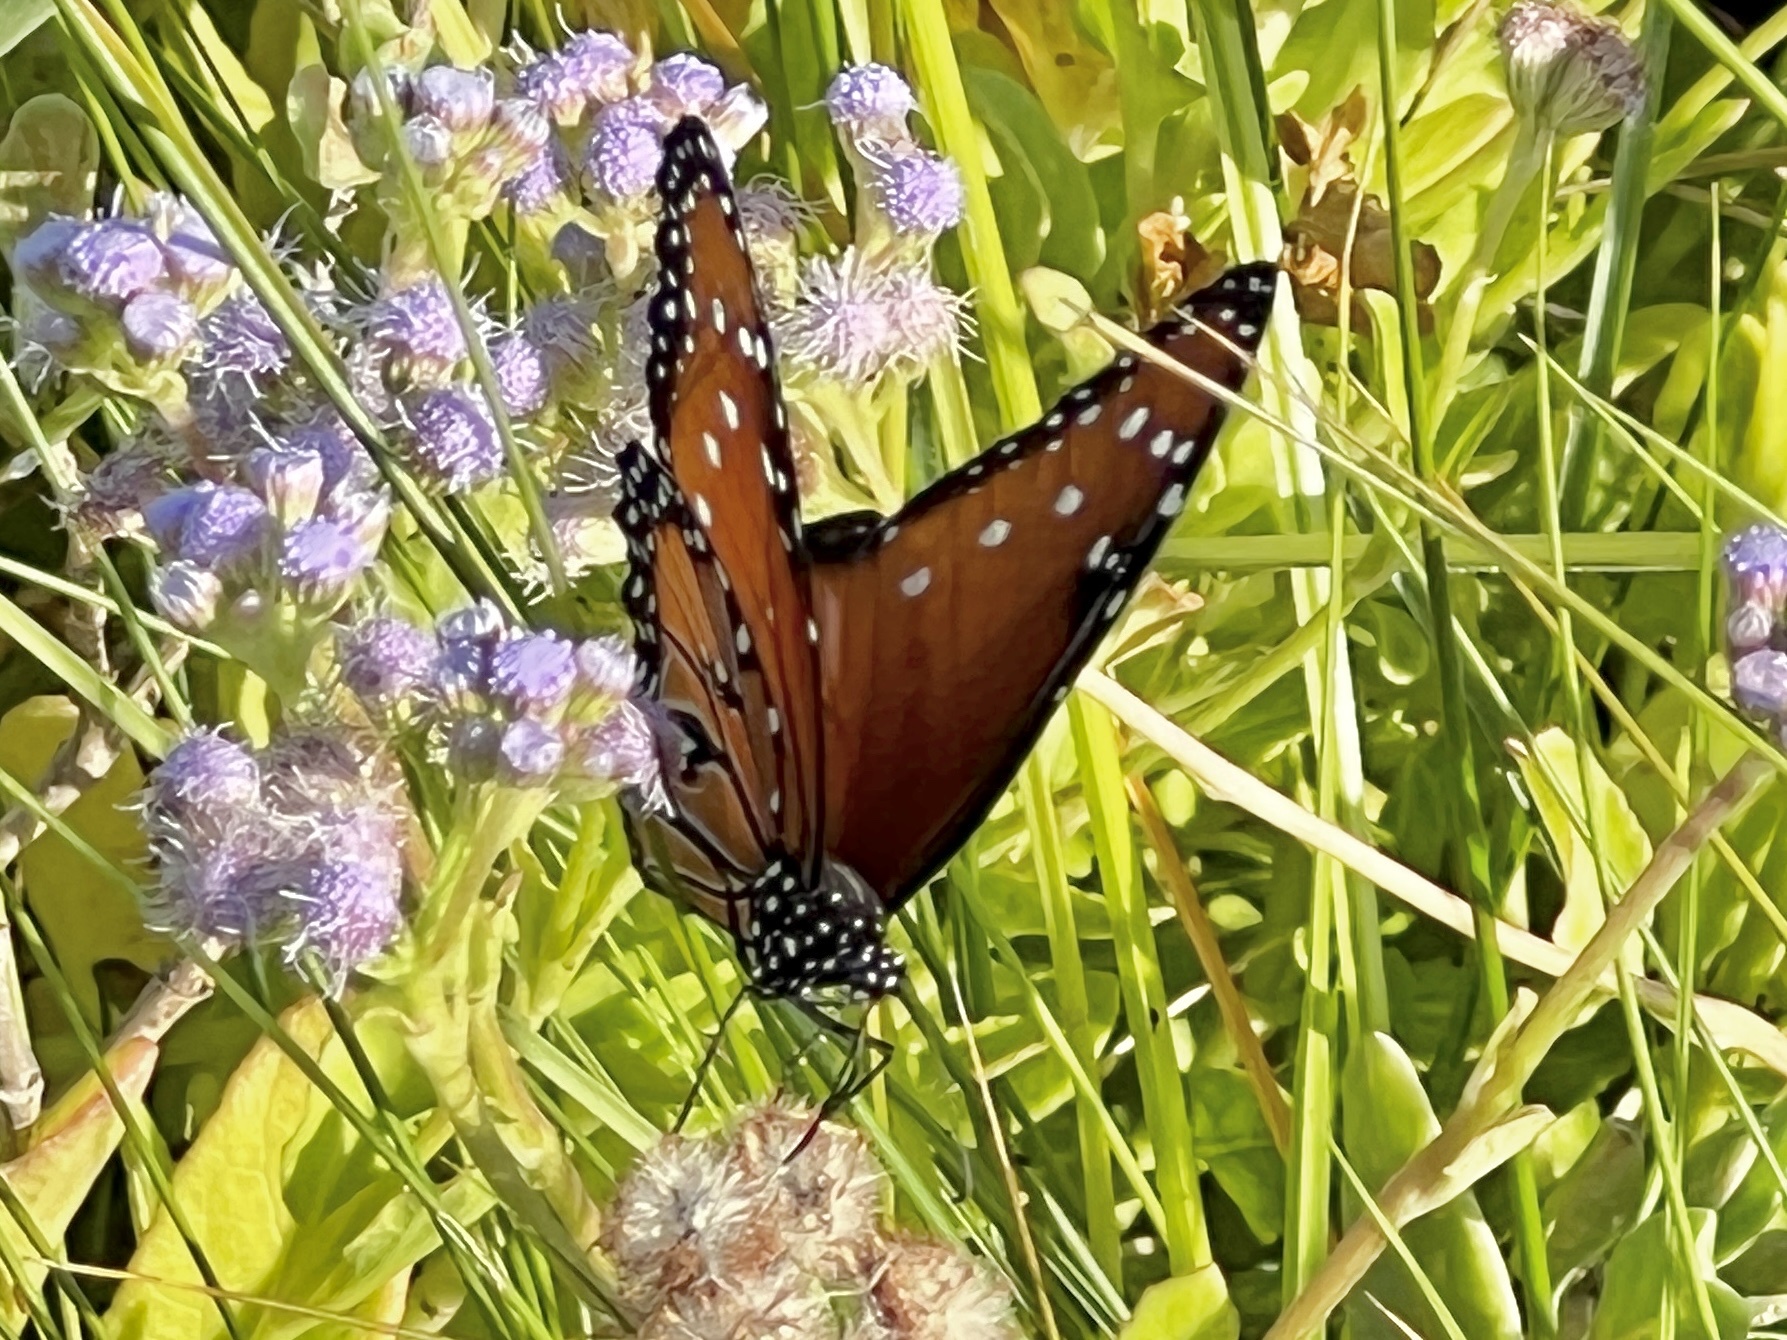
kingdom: Animalia
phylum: Arthropoda
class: Insecta
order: Lepidoptera
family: Nymphalidae
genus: Danaus
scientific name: Danaus gilippus
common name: Queen
